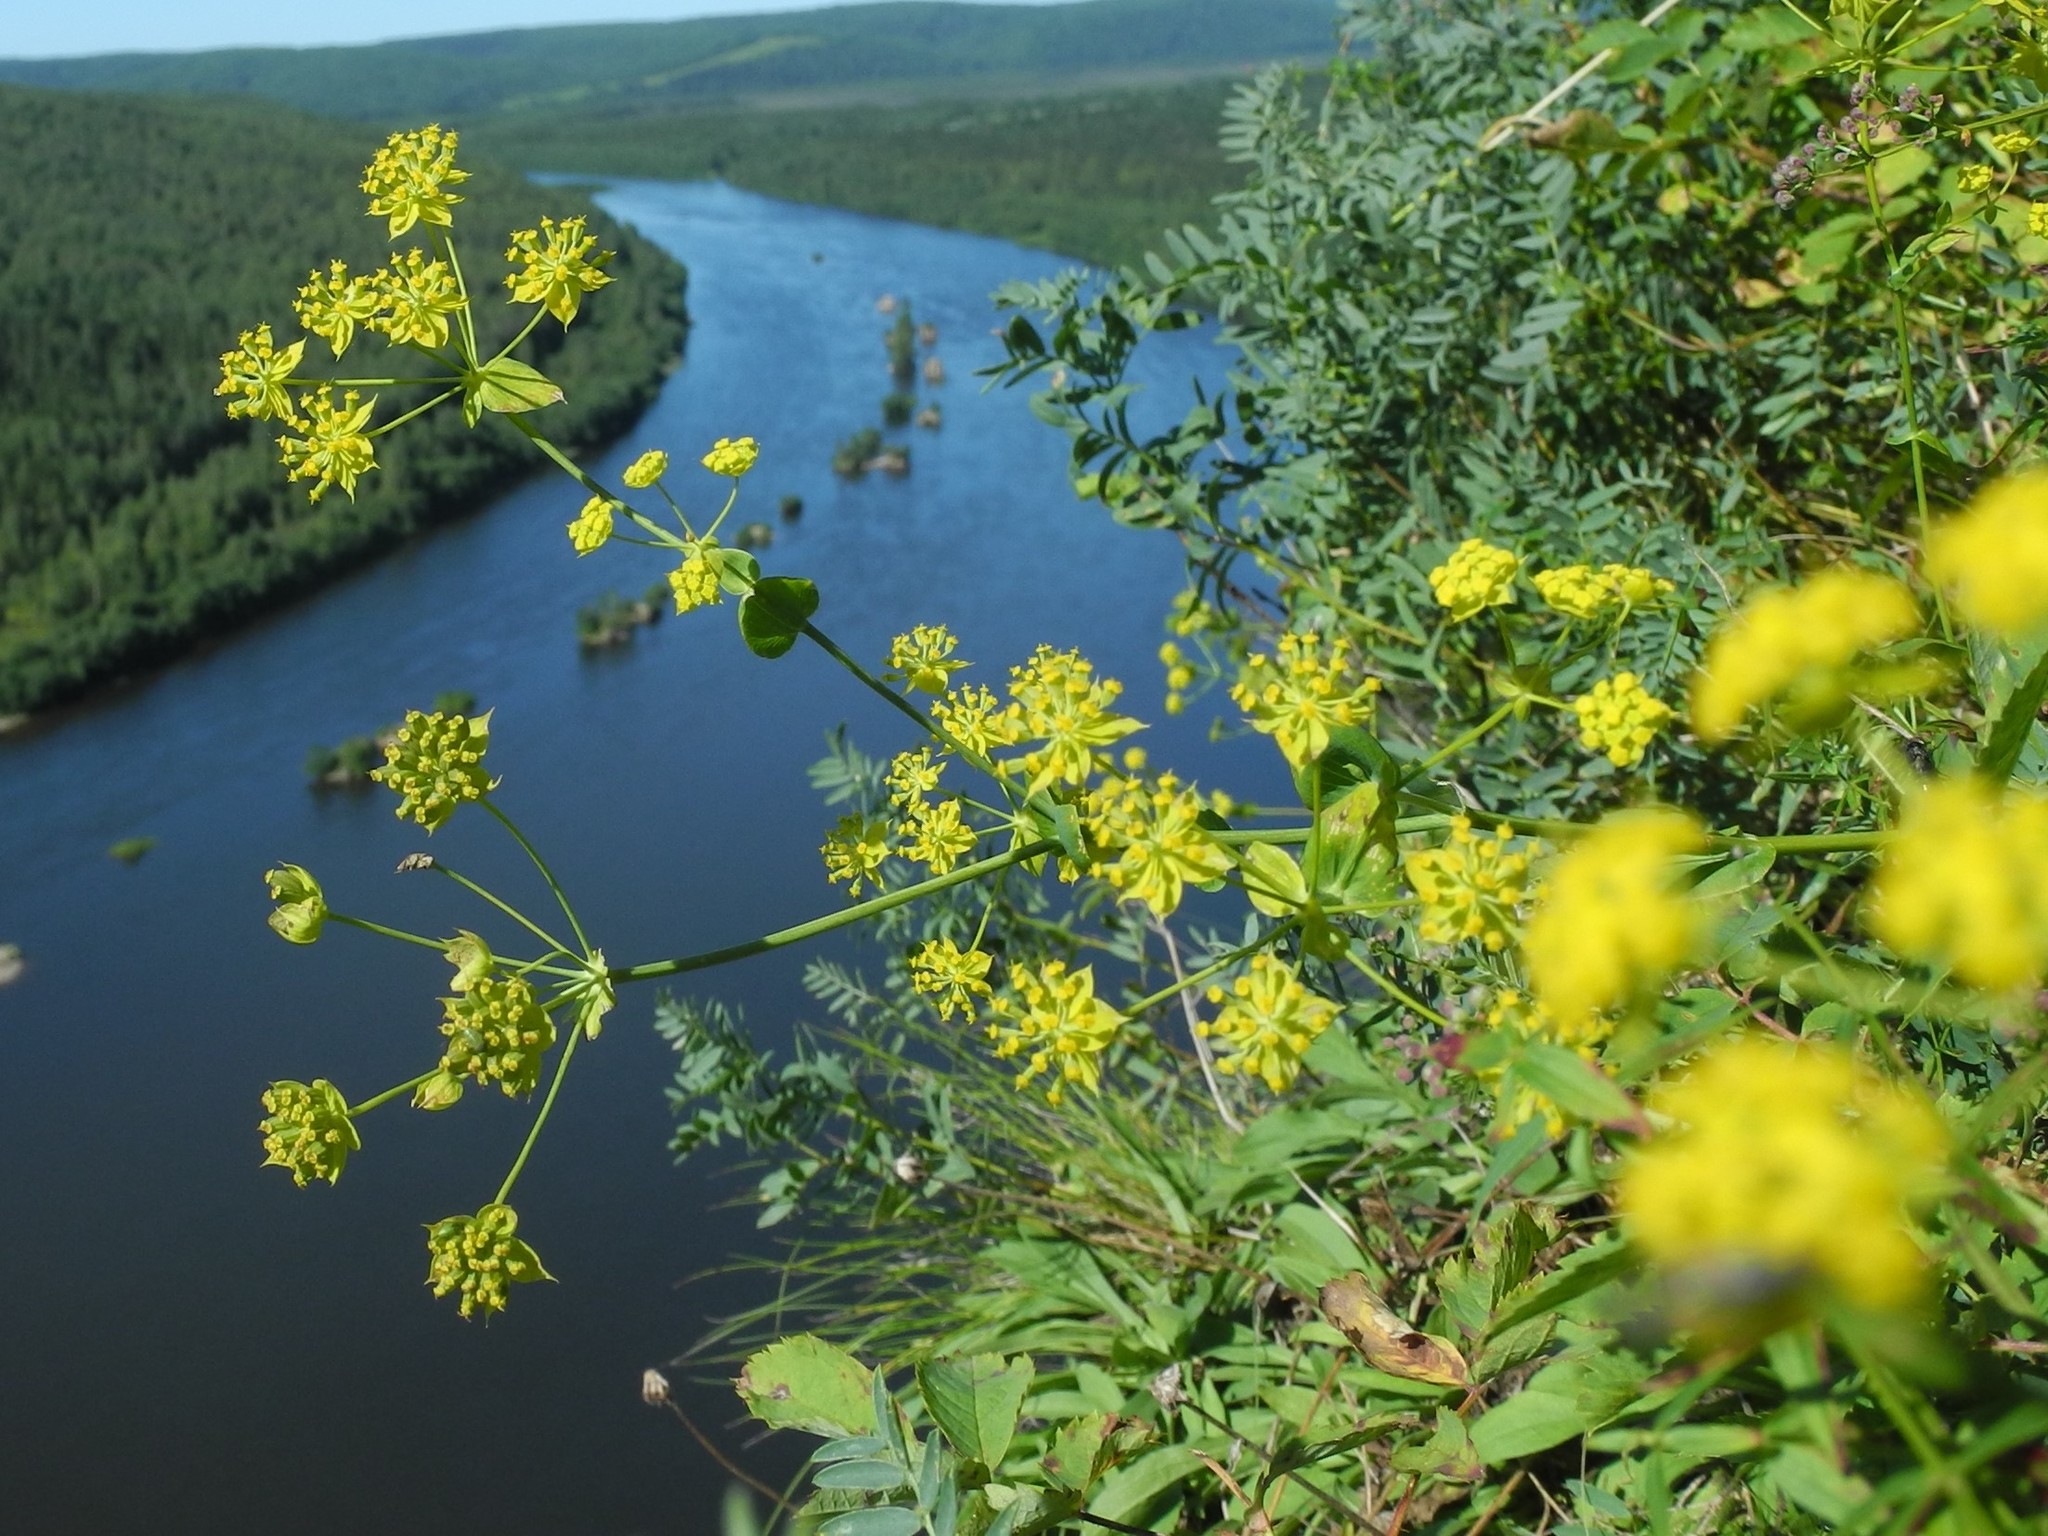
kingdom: Plantae
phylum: Tracheophyta
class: Magnoliopsida
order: Apiales
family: Apiaceae
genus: Bupleurum
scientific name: Bupleurum aureum
